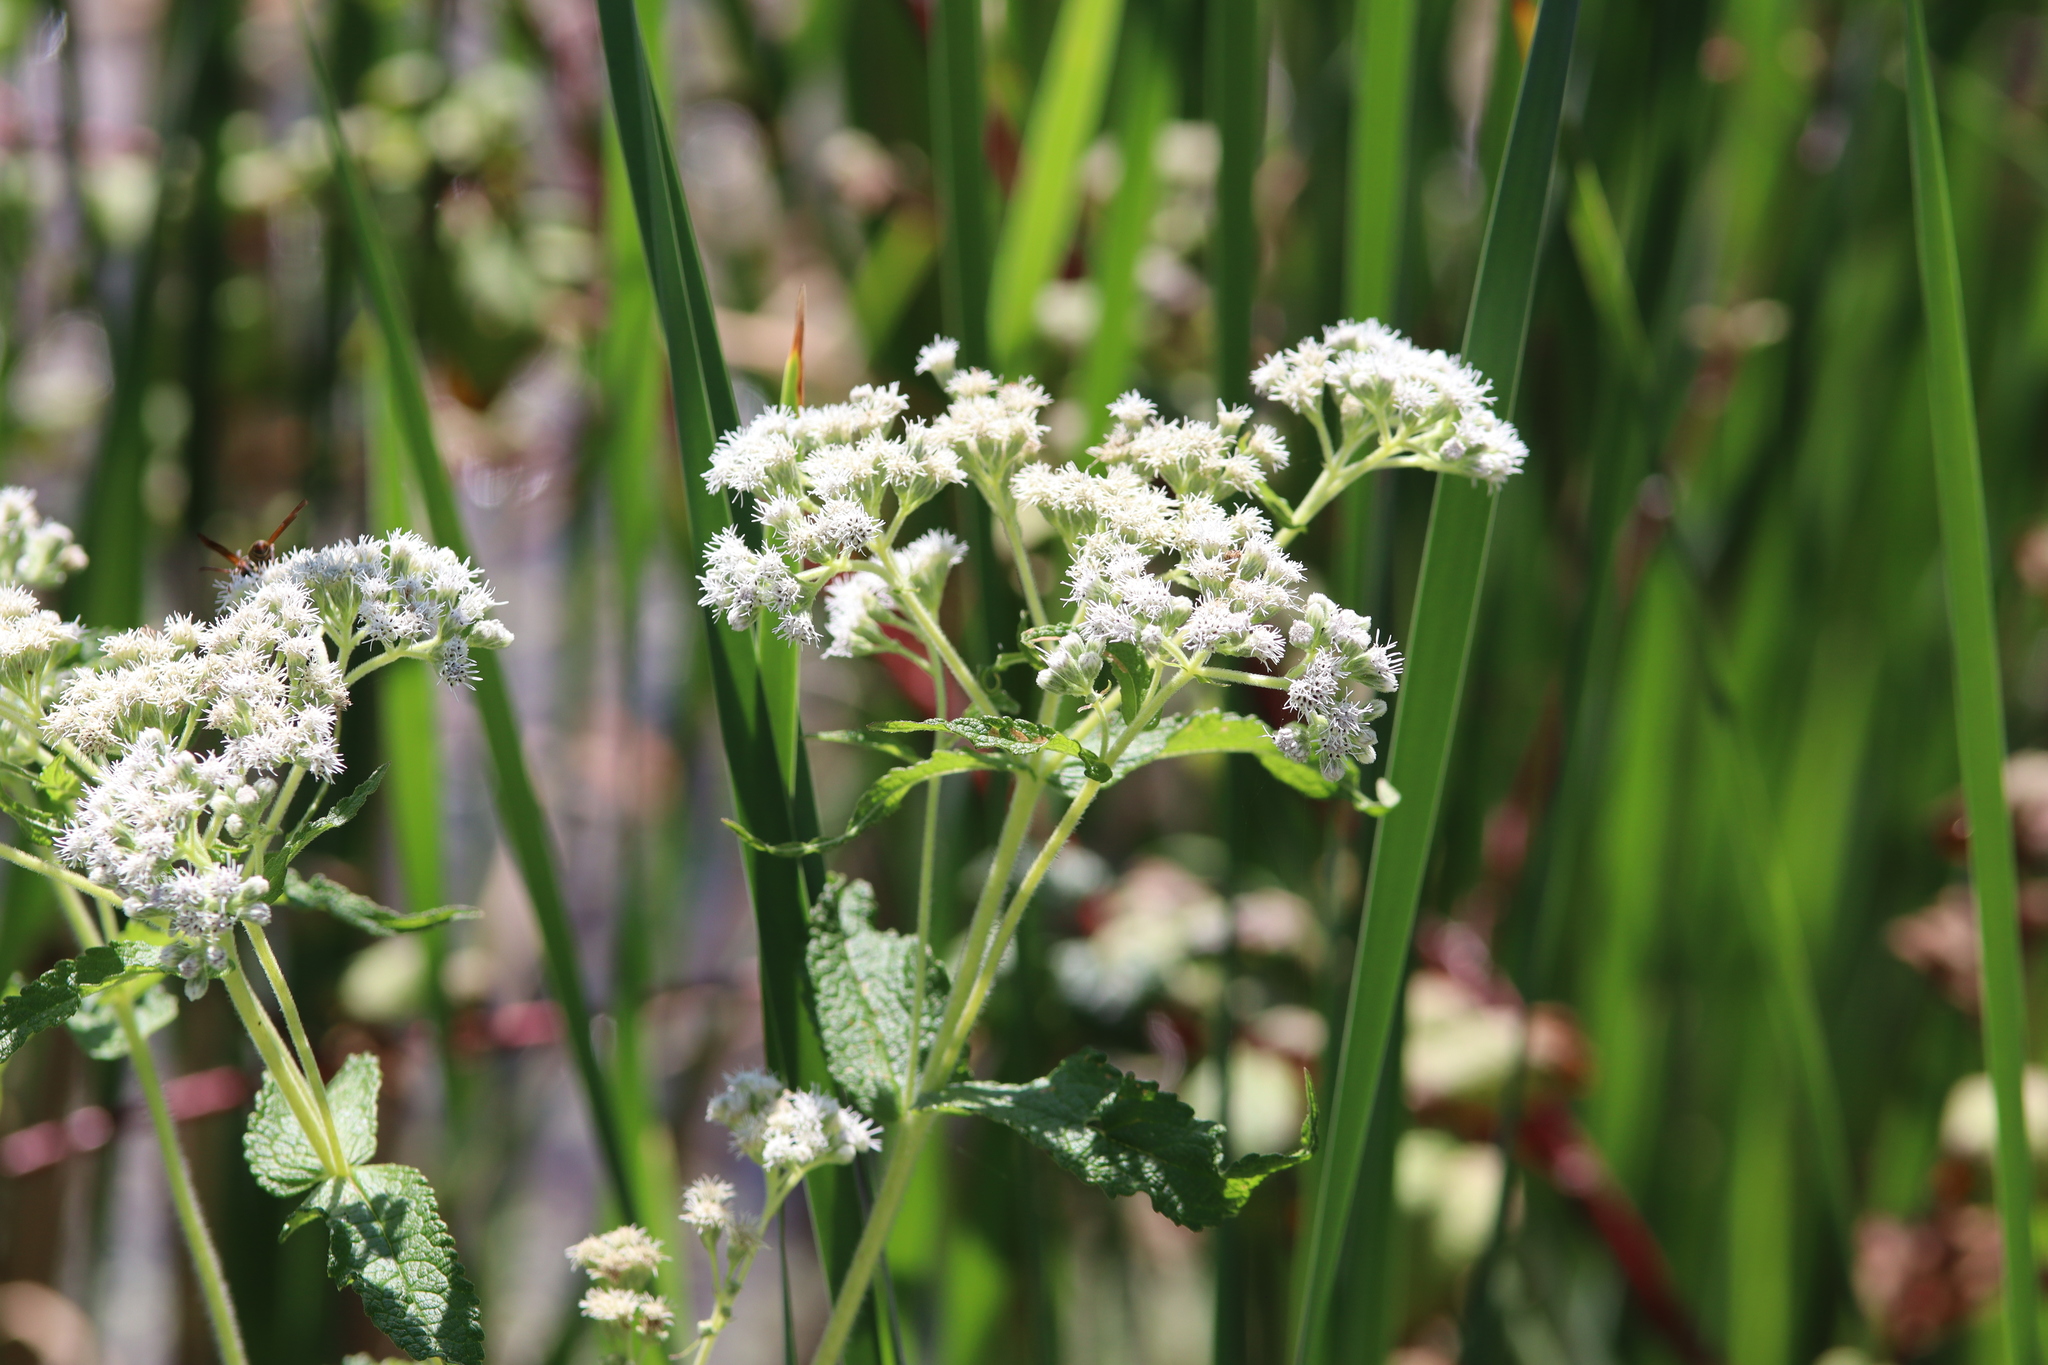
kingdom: Plantae
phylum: Tracheophyta
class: Magnoliopsida
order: Asterales
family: Asteraceae
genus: Eupatorium
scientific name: Eupatorium perfoliatum
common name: Boneset
